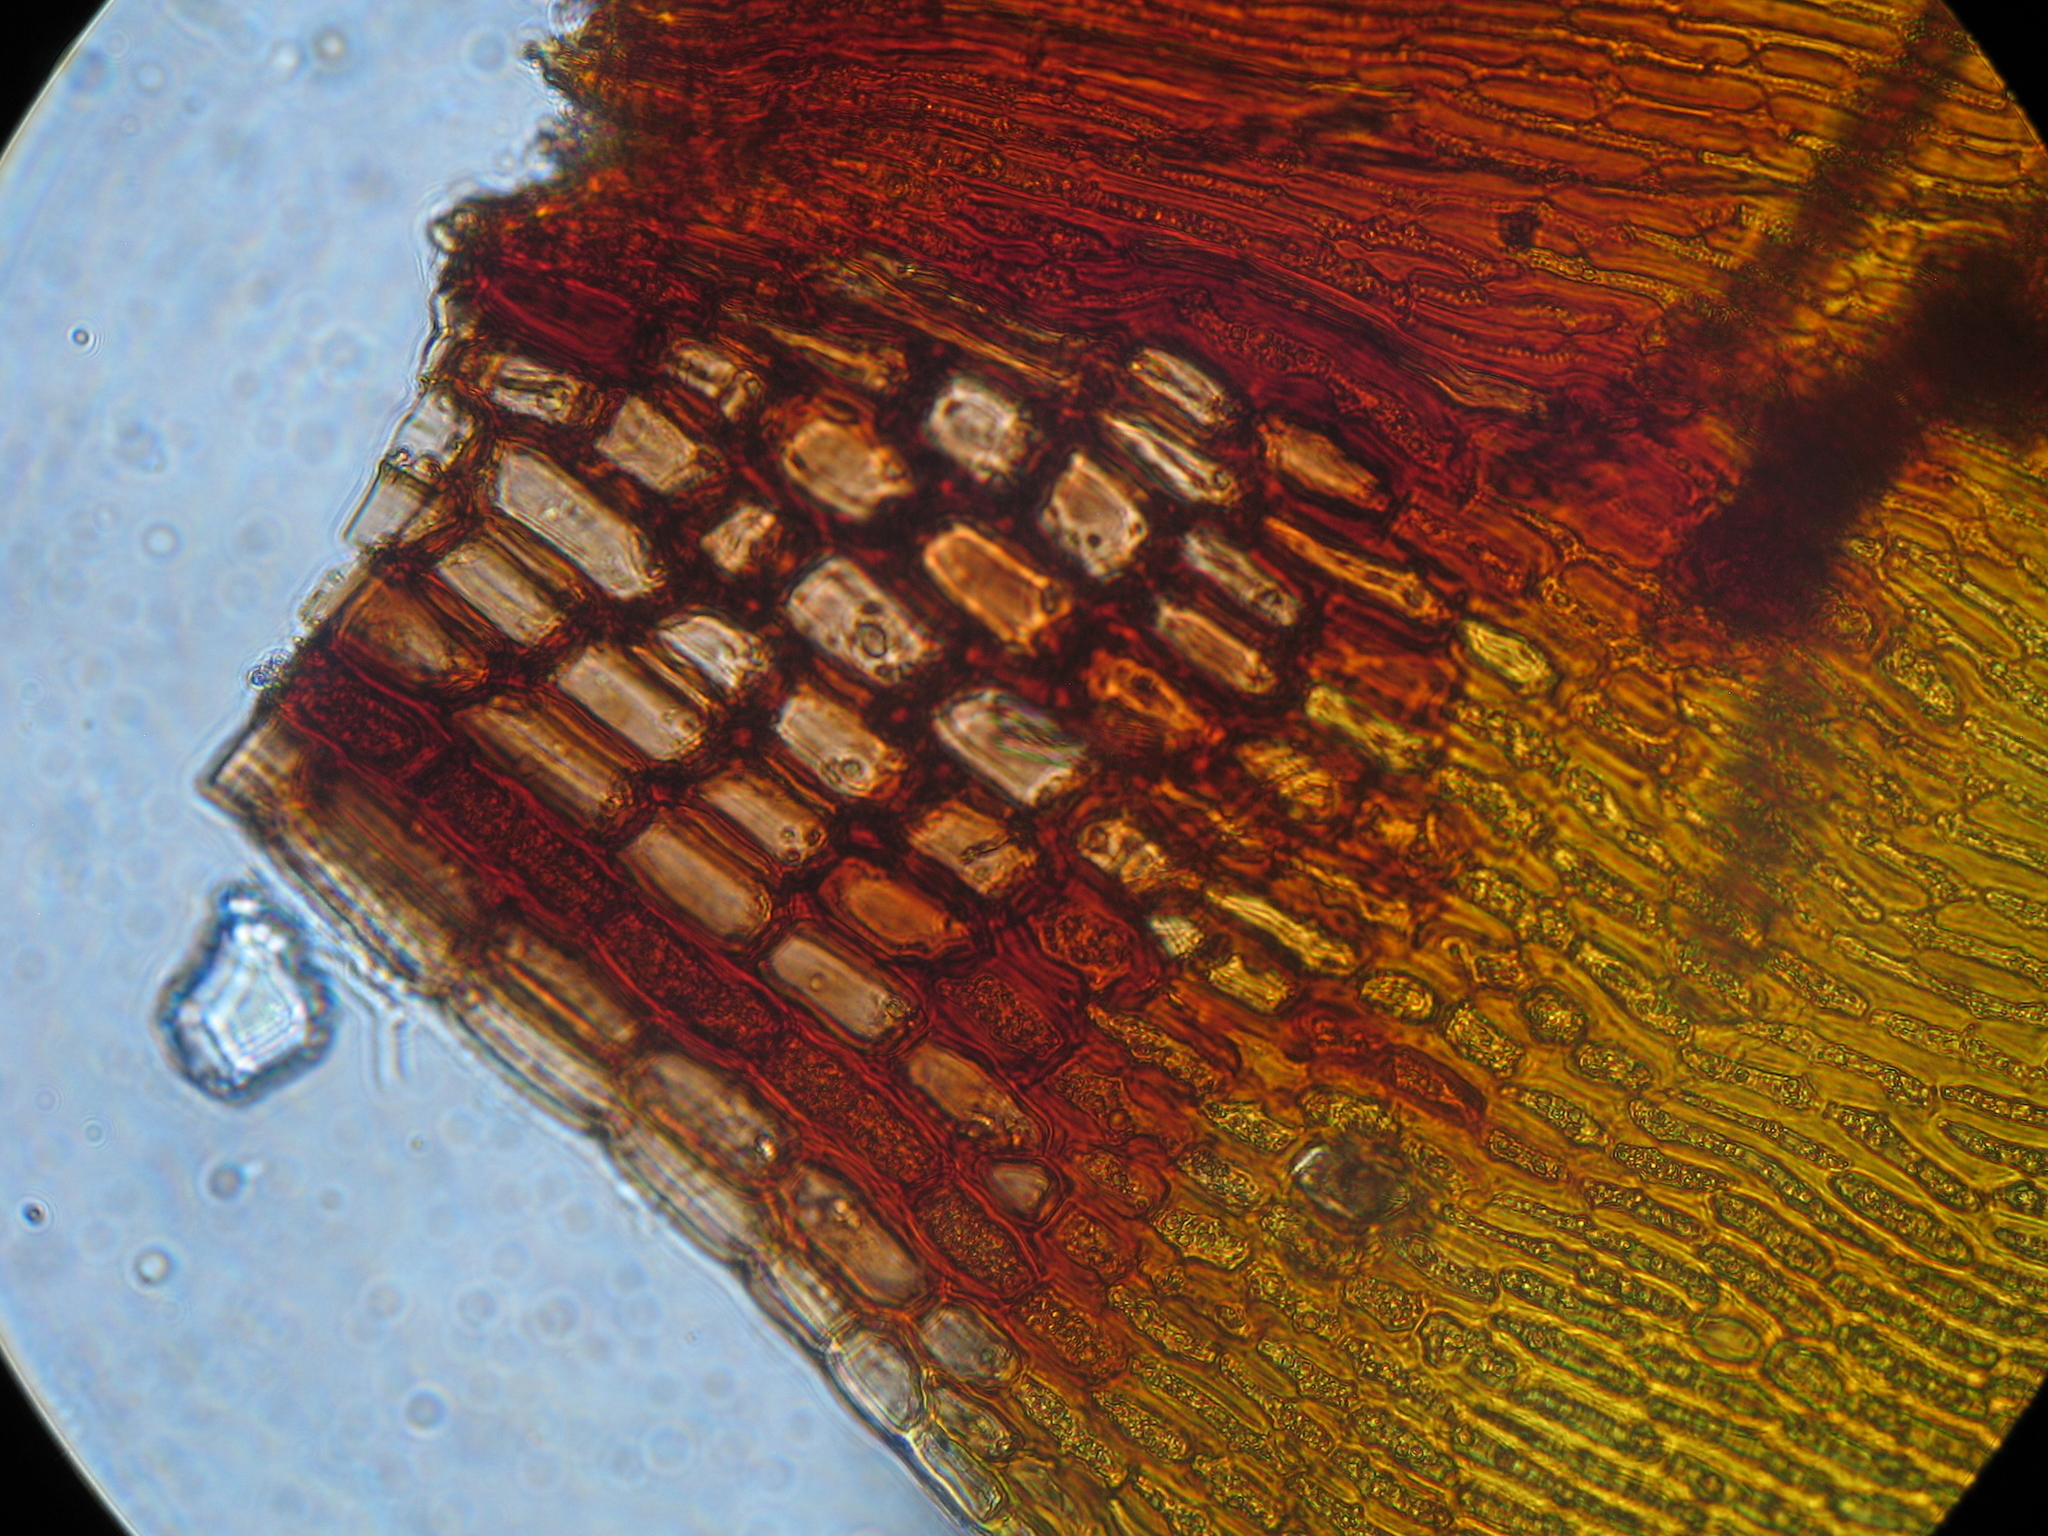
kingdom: Plantae
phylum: Bryophyta
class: Bryopsida
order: Dicranales
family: Dicranaceae
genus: Mesotus
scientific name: Mesotus celatus
